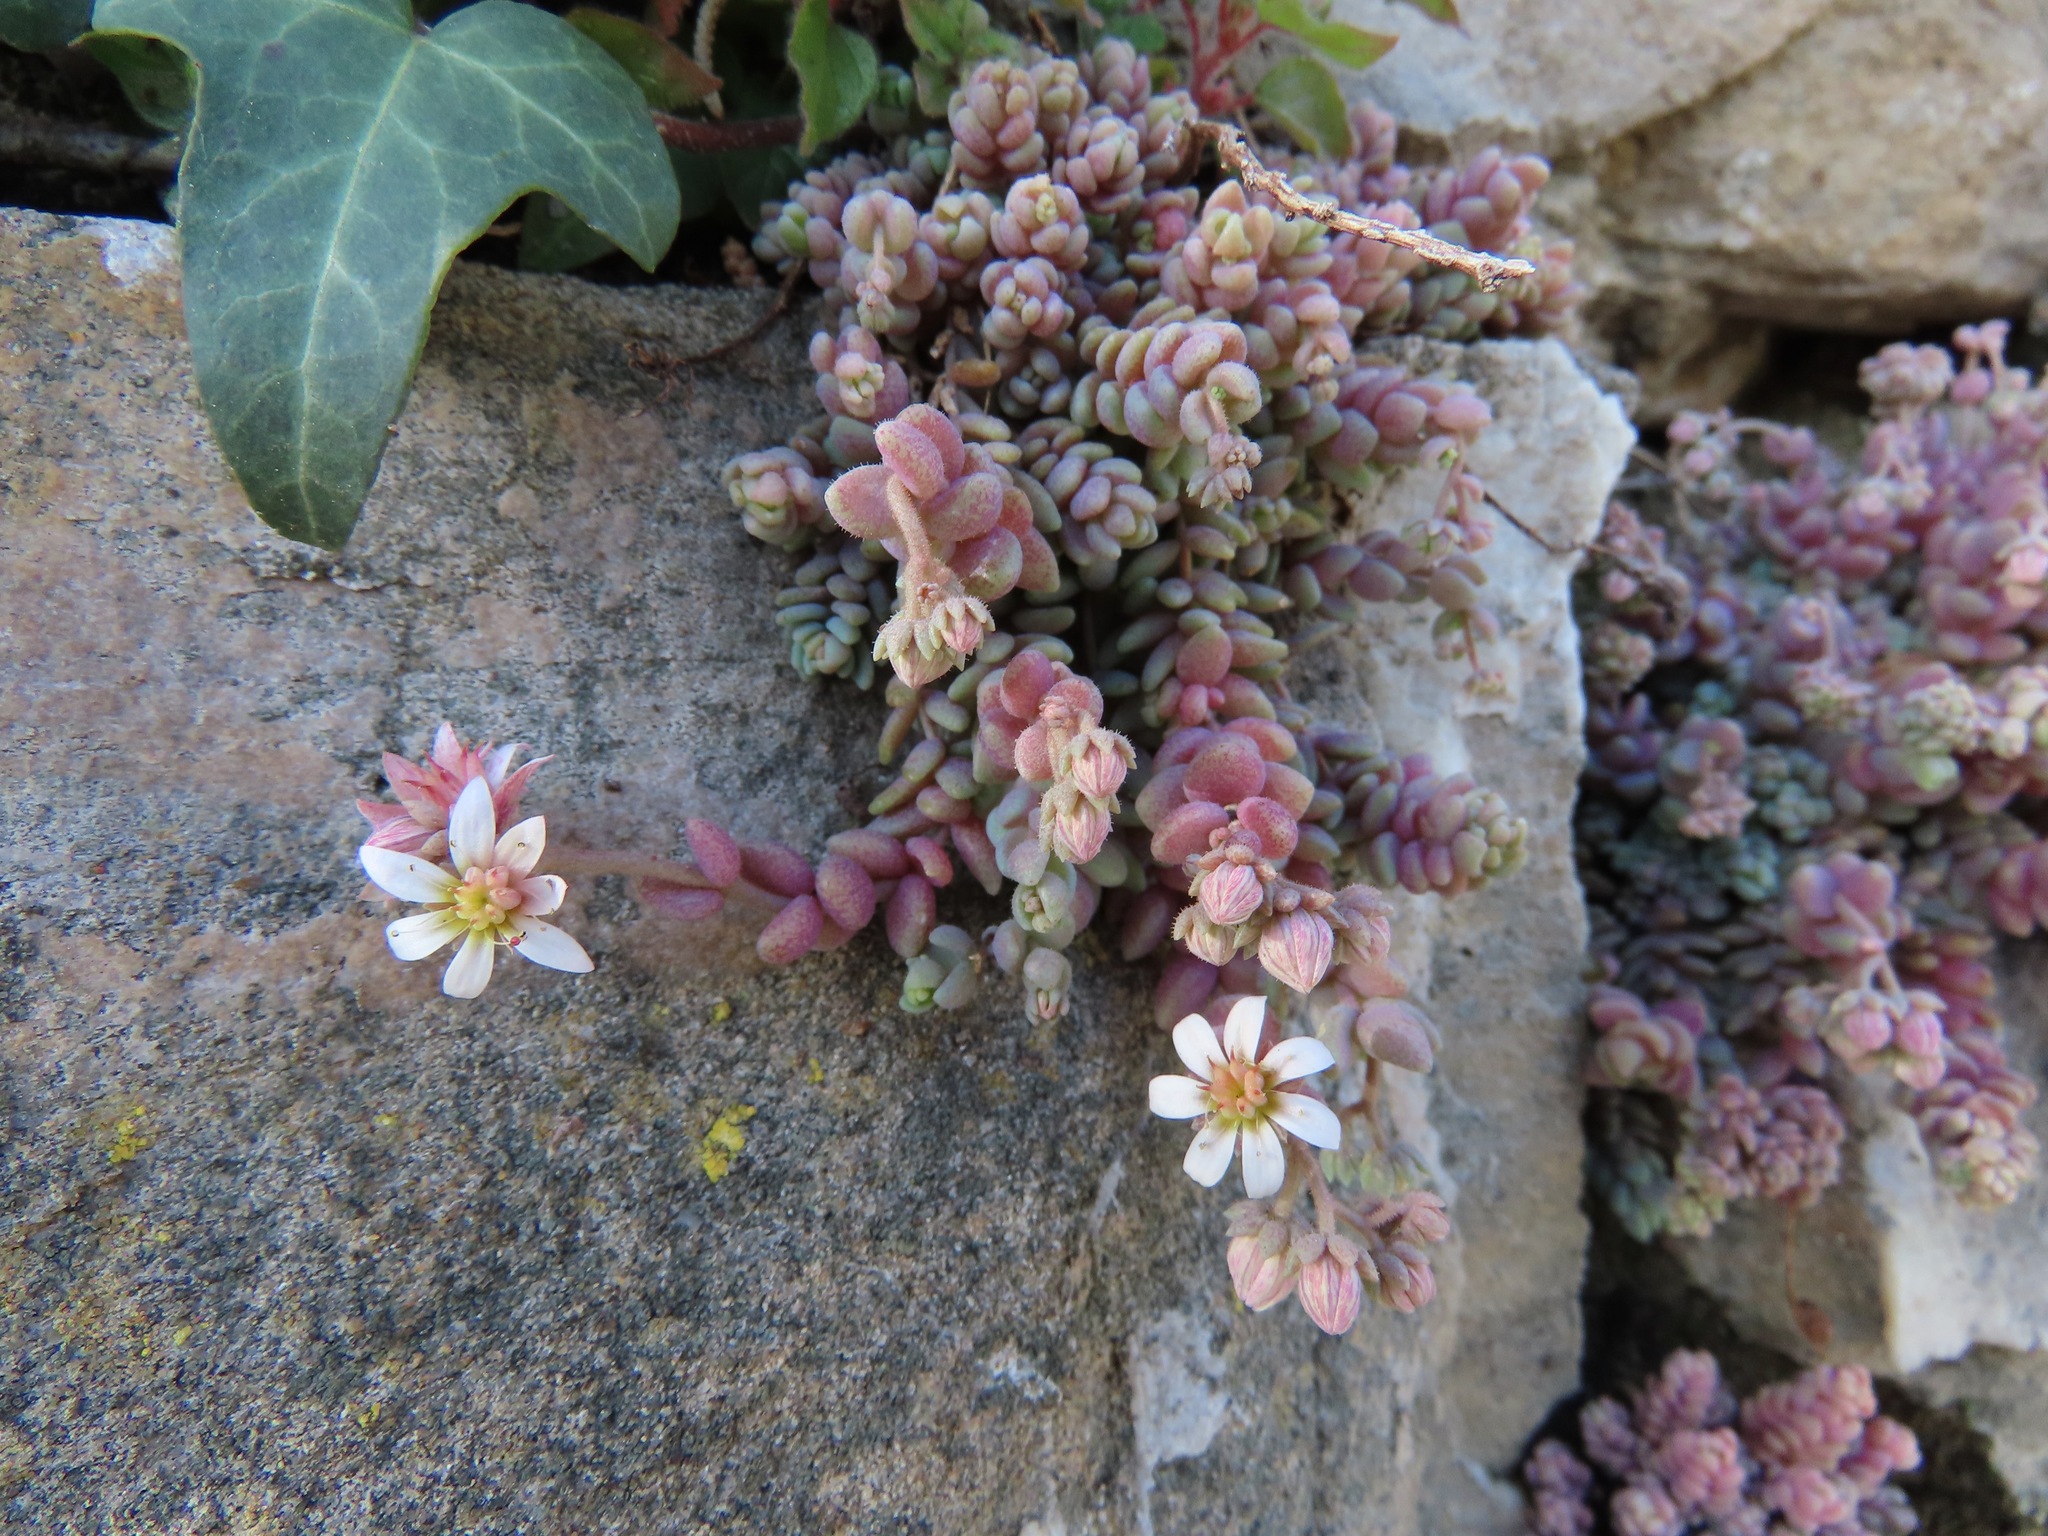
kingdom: Plantae
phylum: Tracheophyta
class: Magnoliopsida
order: Saxifragales
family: Crassulaceae
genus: Sedum
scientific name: Sedum dasyphyllum
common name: Thick-leaf stonecrop
